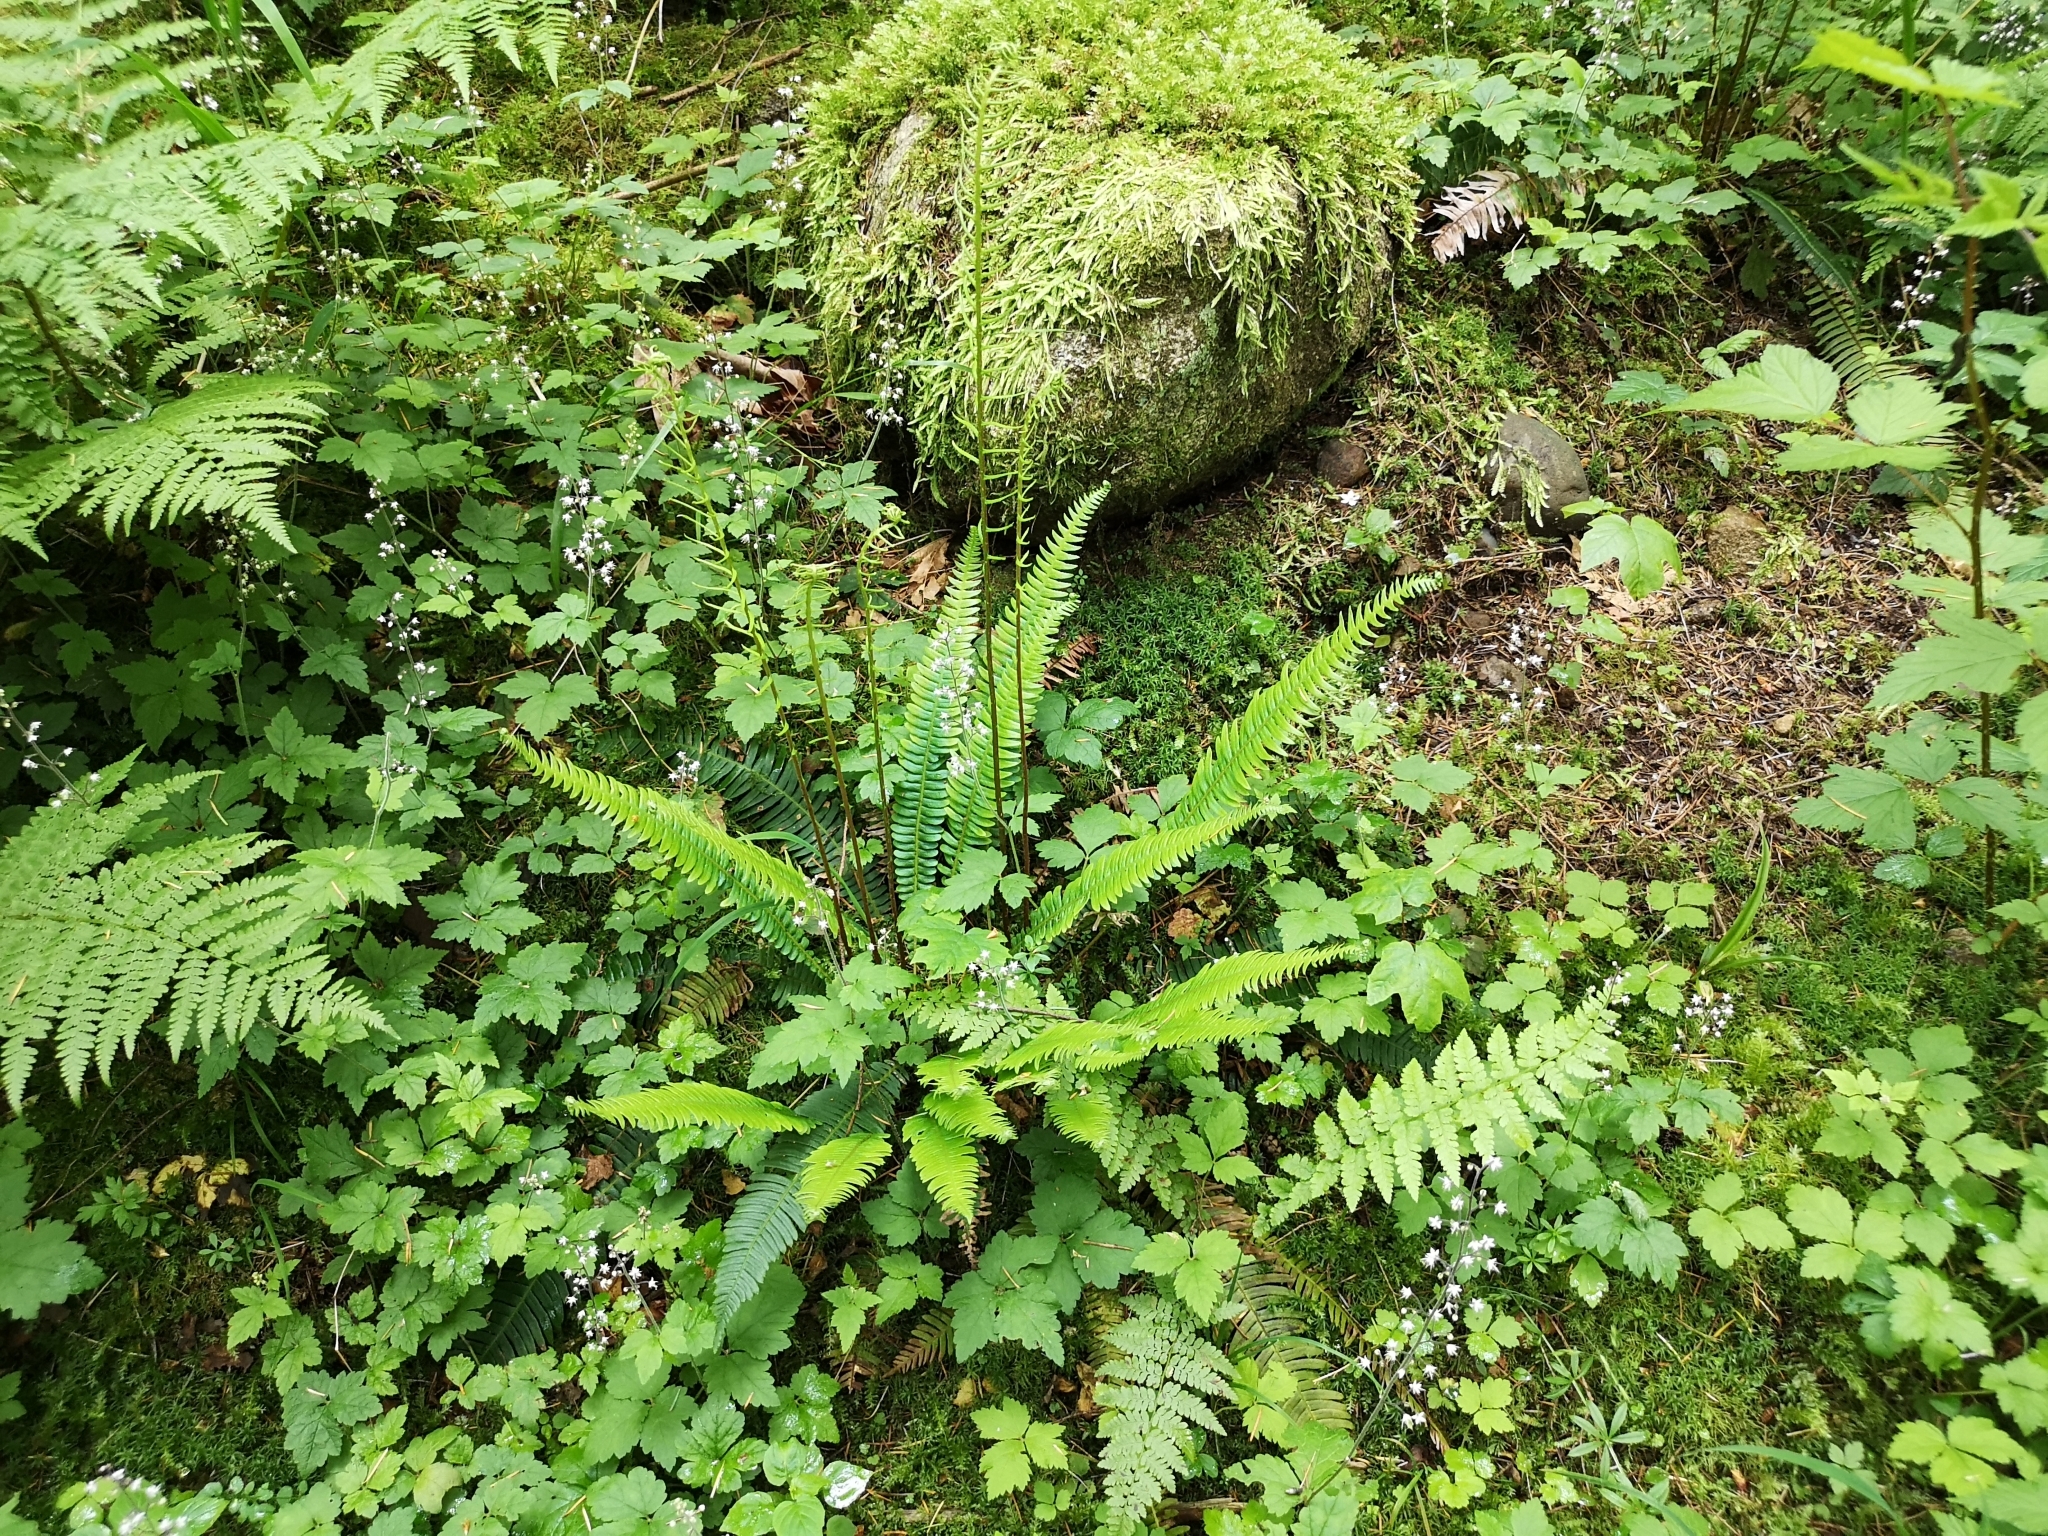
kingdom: Plantae
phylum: Tracheophyta
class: Polypodiopsida
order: Polypodiales
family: Blechnaceae
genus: Struthiopteris
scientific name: Struthiopteris spicant
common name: Deer fern
